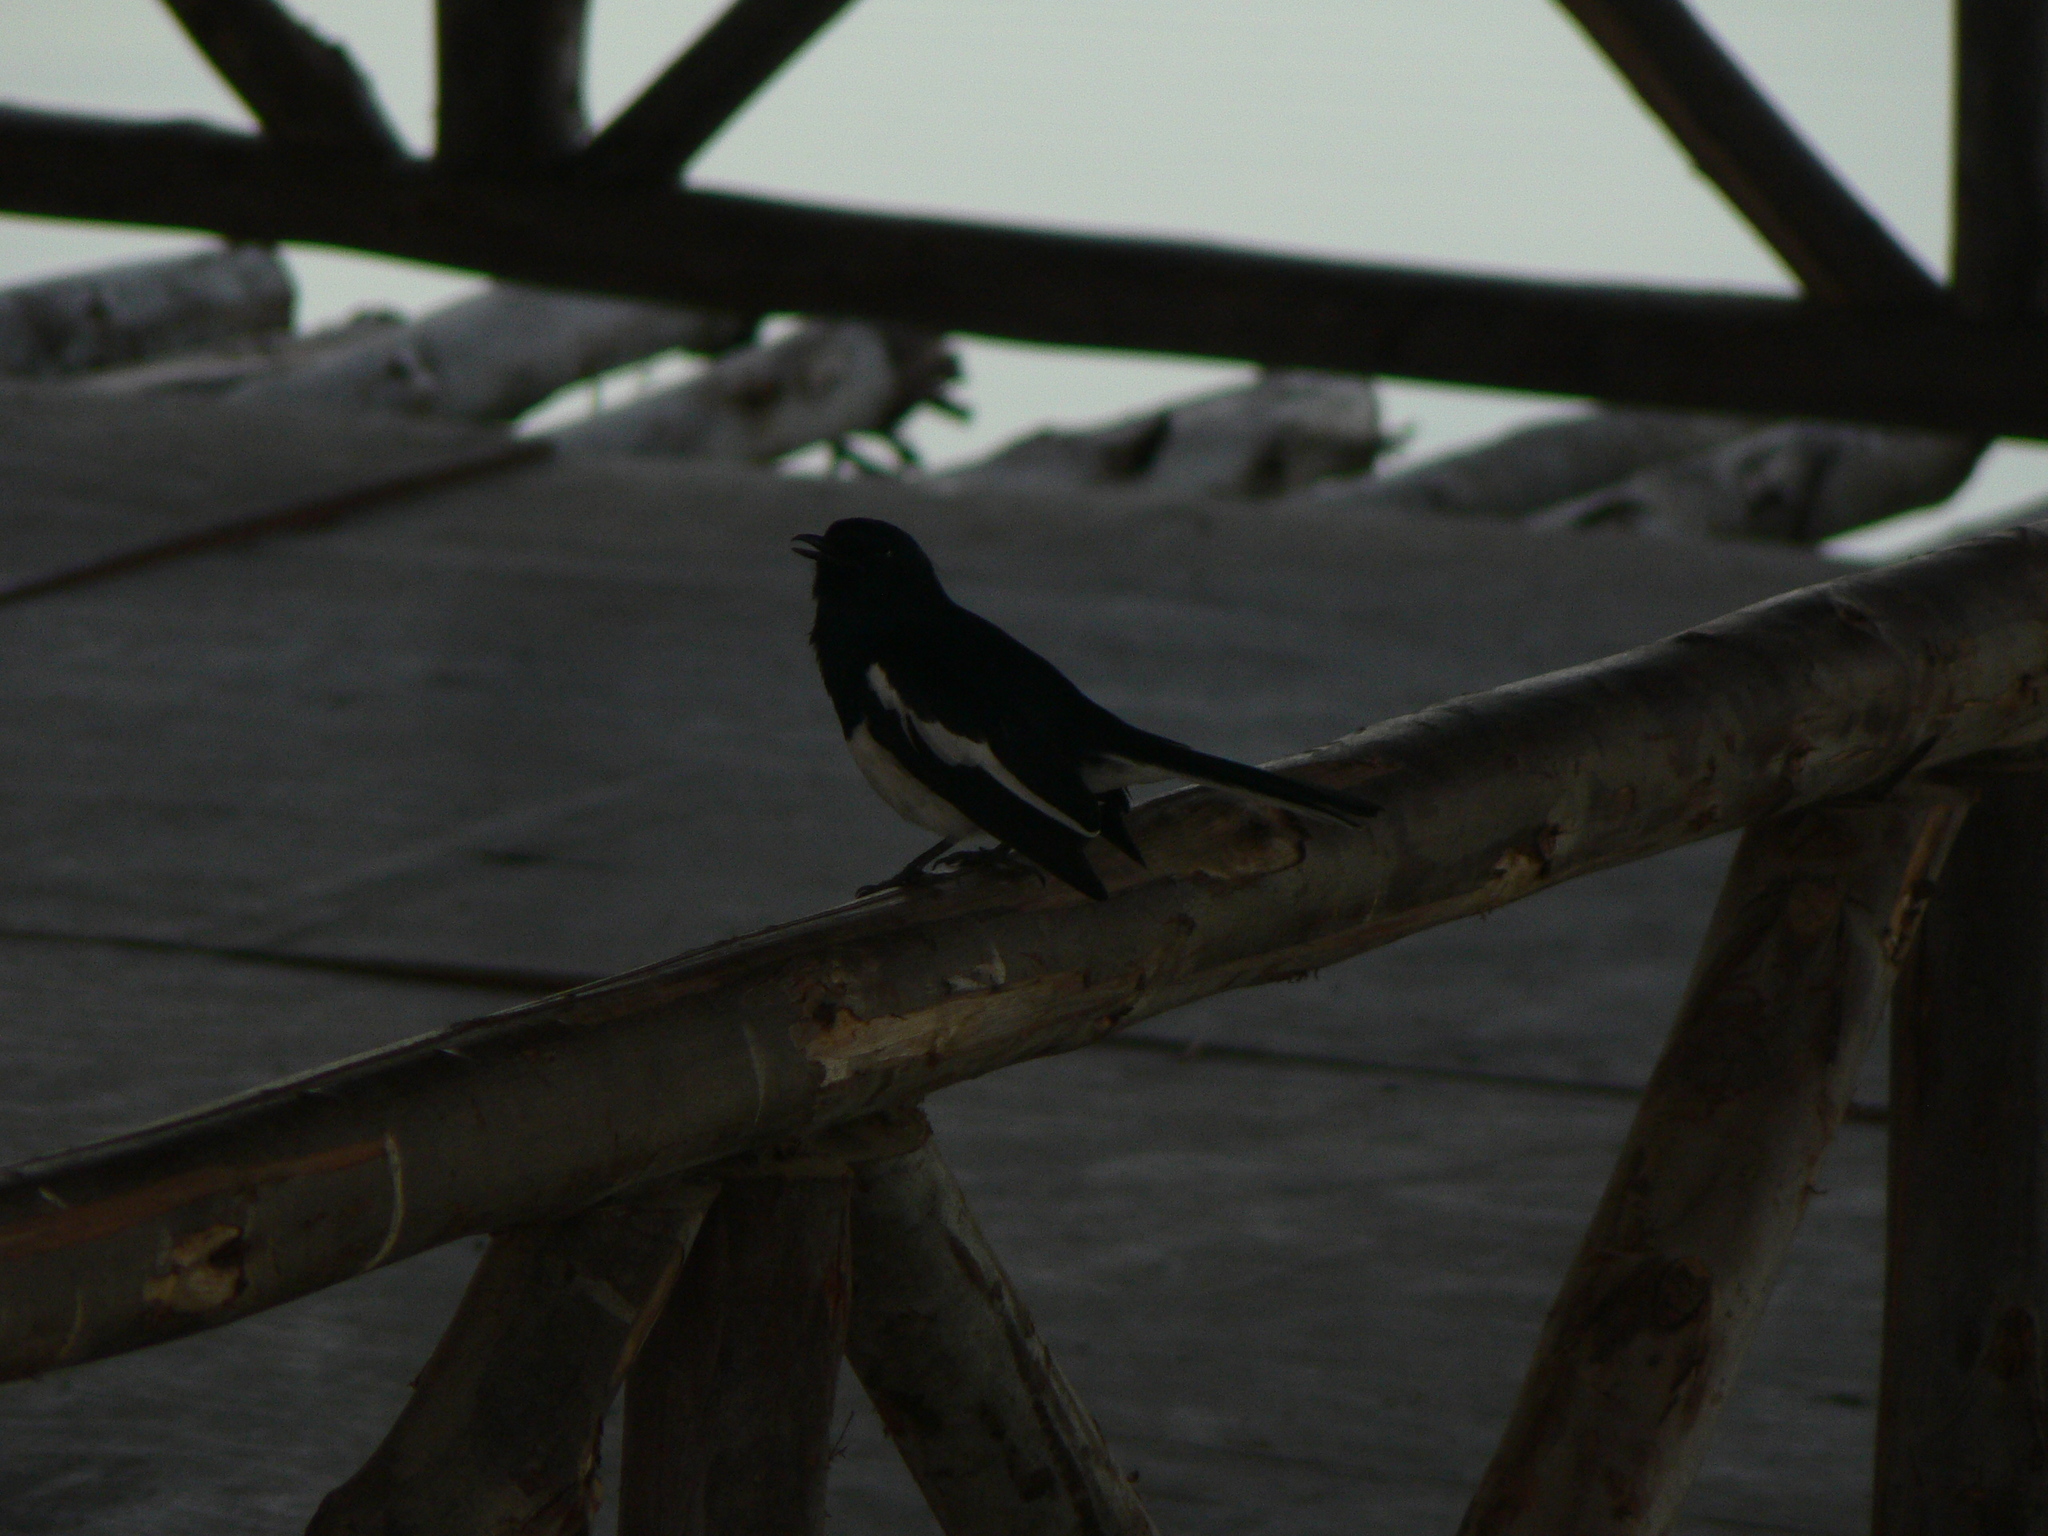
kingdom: Animalia
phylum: Chordata
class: Aves
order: Passeriformes
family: Muscicapidae
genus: Copsychus
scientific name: Copsychus saularis
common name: Oriental magpie-robin
